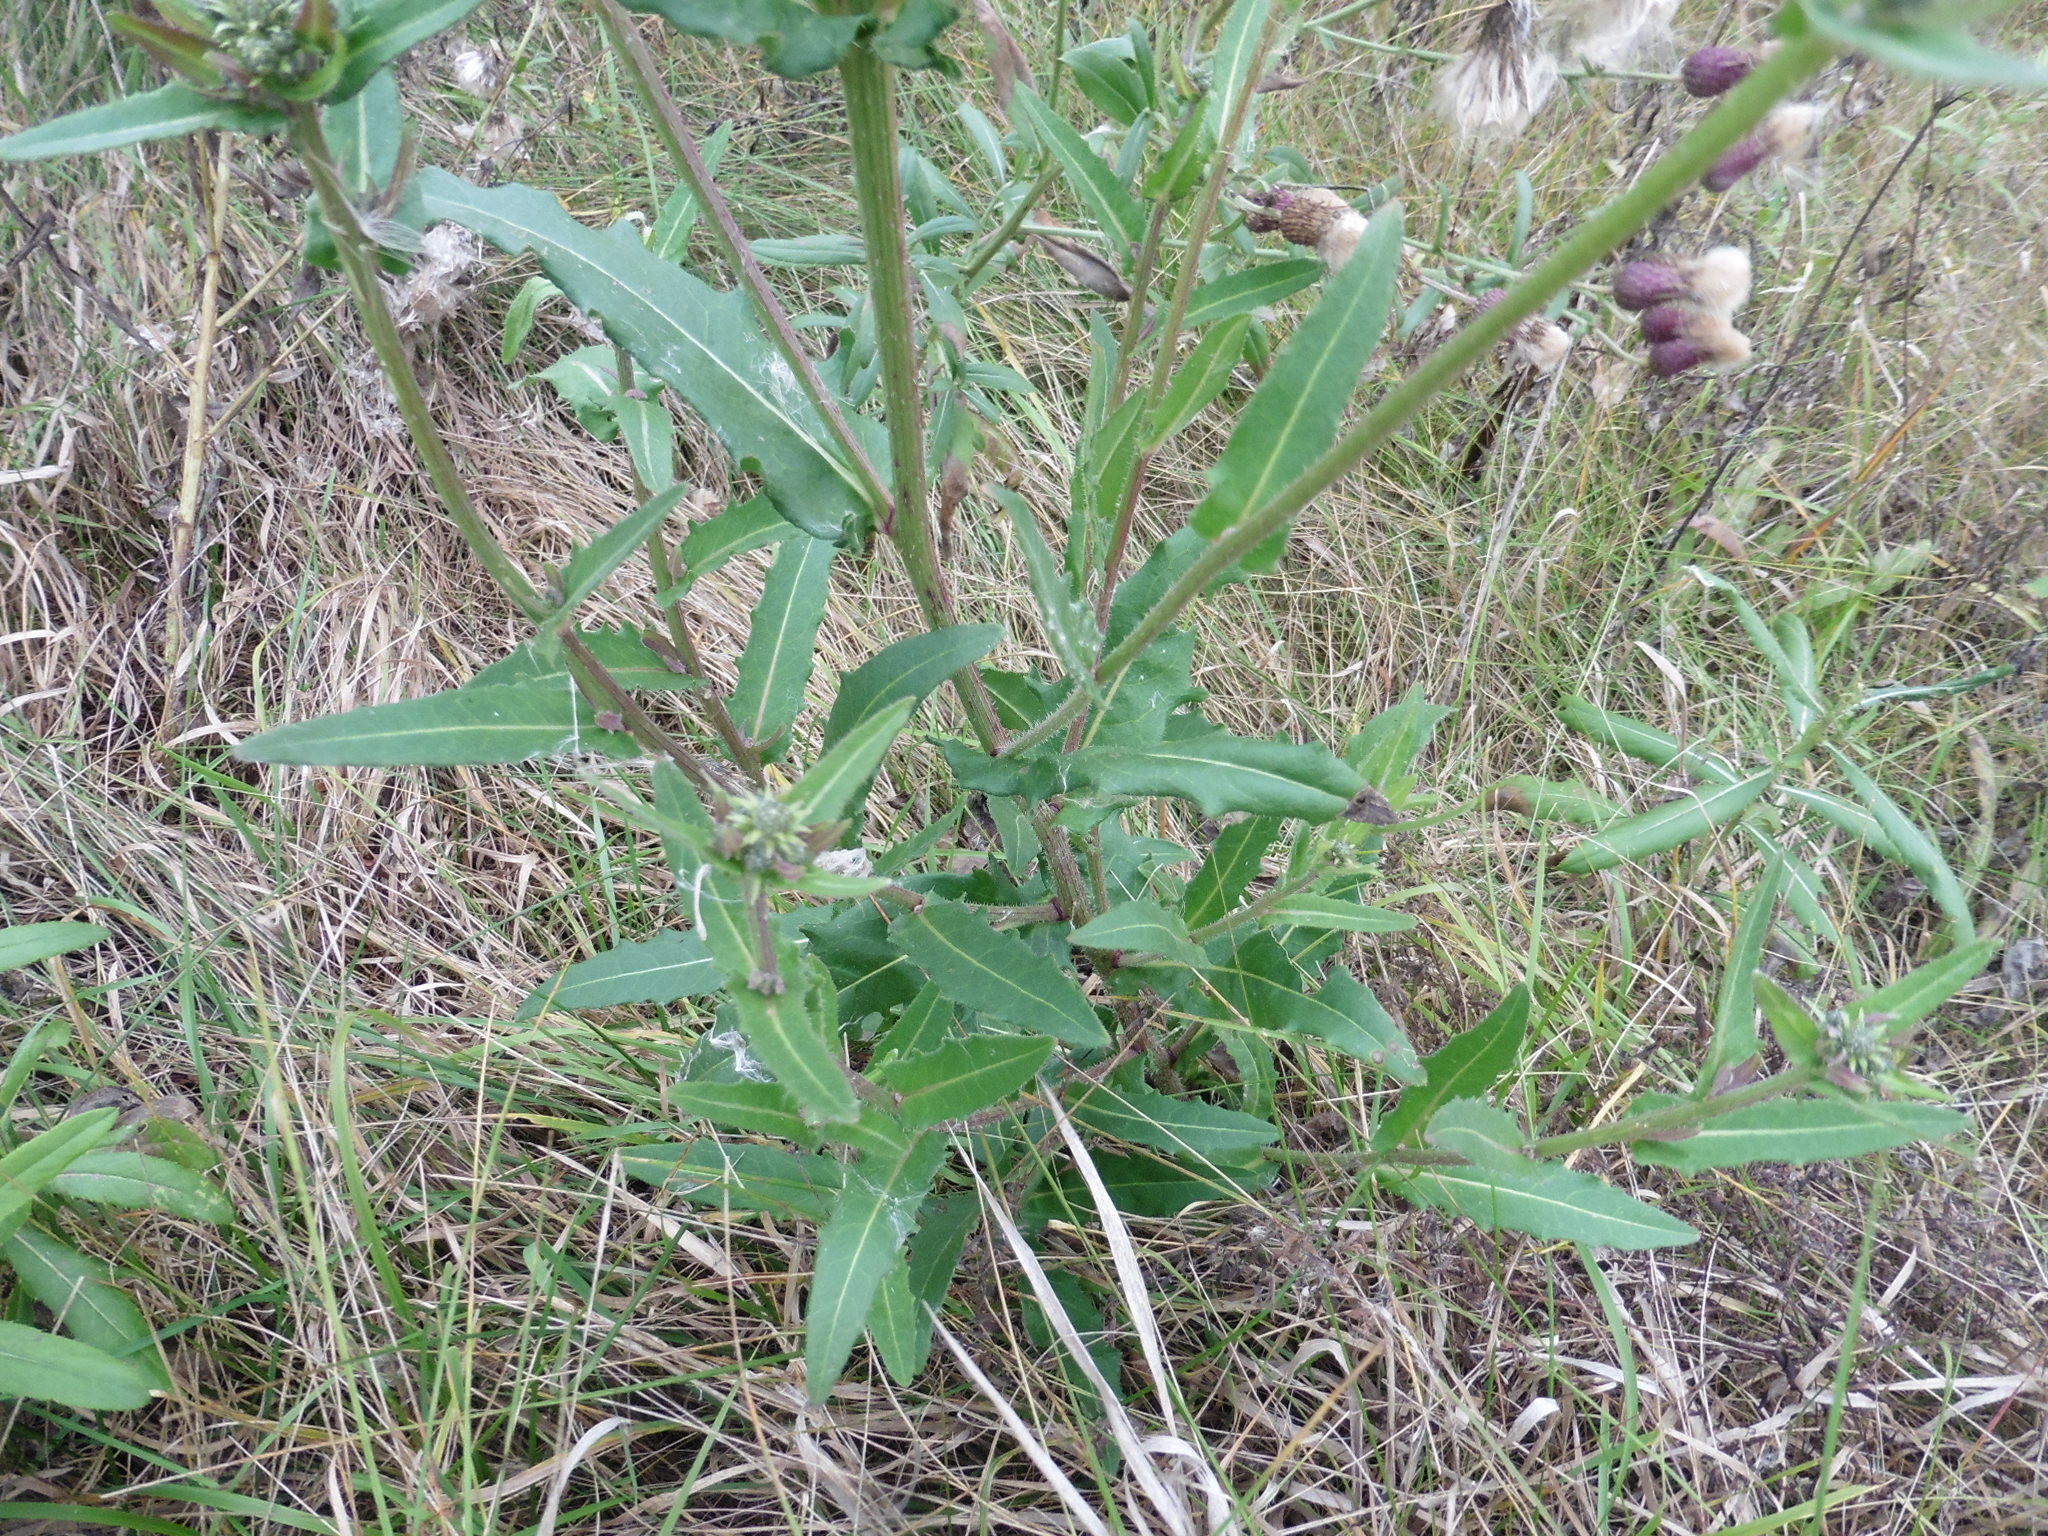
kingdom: Plantae
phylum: Tracheophyta
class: Magnoliopsida
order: Asterales
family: Asteraceae
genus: Picris
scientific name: Picris hieracioides
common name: Hawkweed oxtongue
